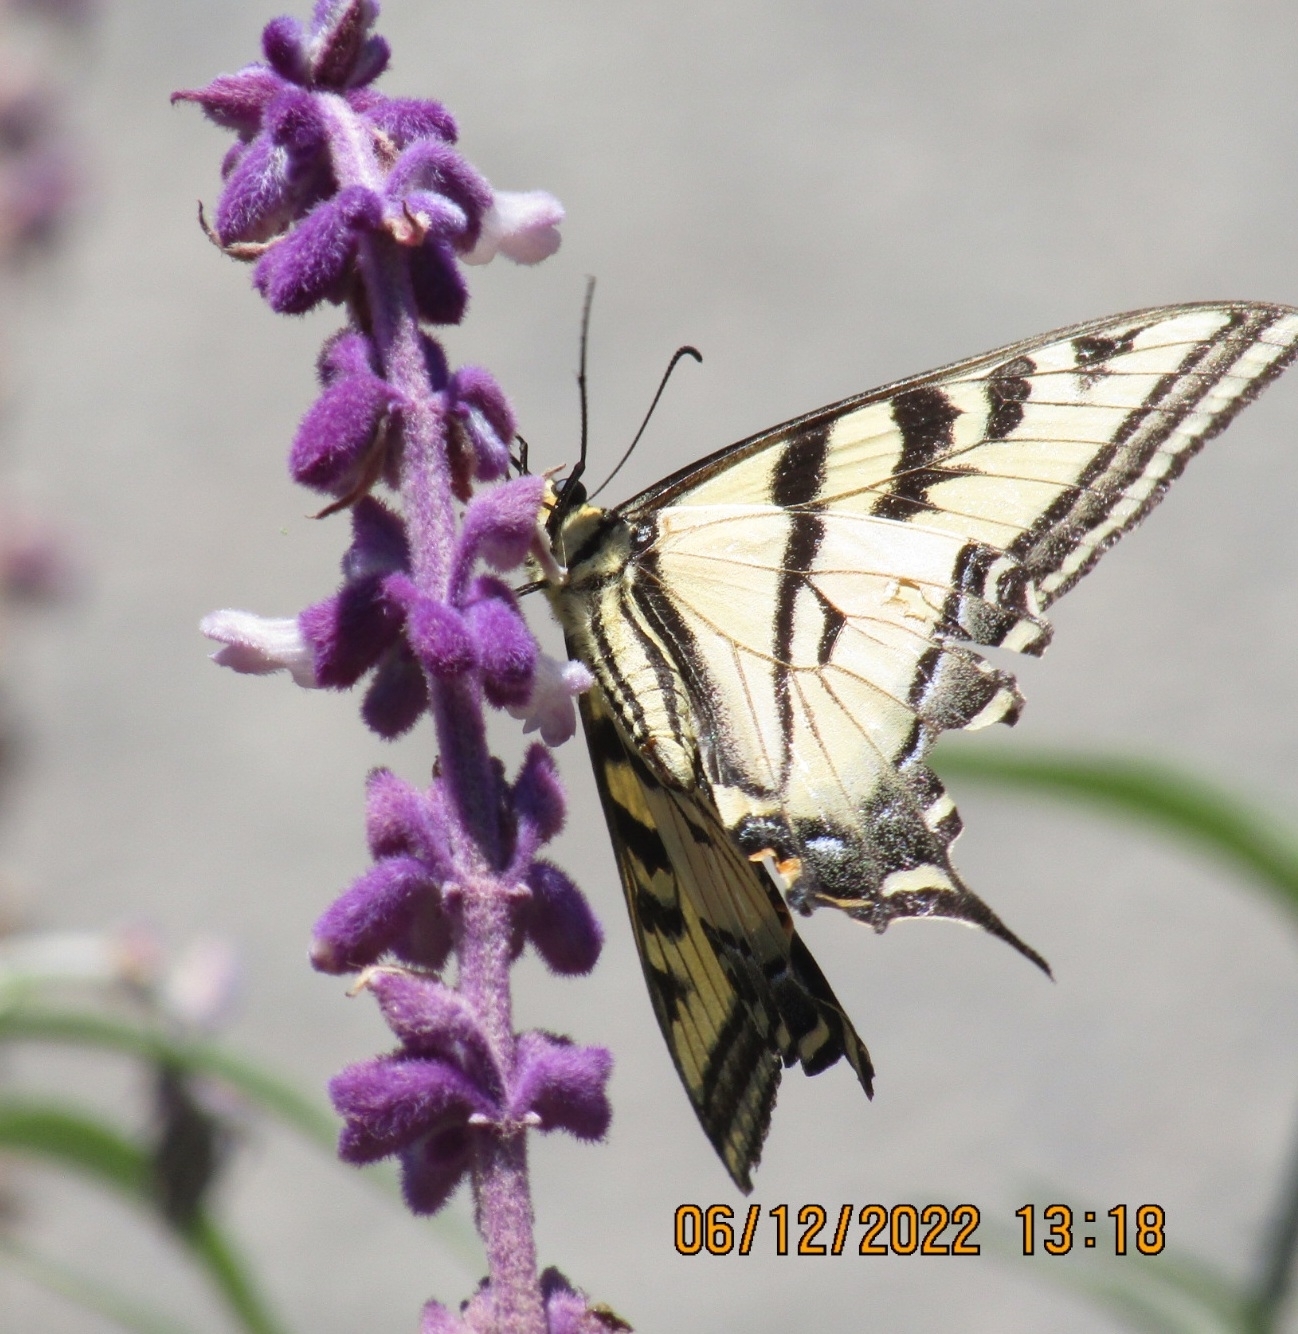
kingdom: Animalia
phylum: Arthropoda
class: Insecta
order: Lepidoptera
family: Papilionidae
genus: Papilio
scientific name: Papilio rutulus
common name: Western tiger swallowtail
